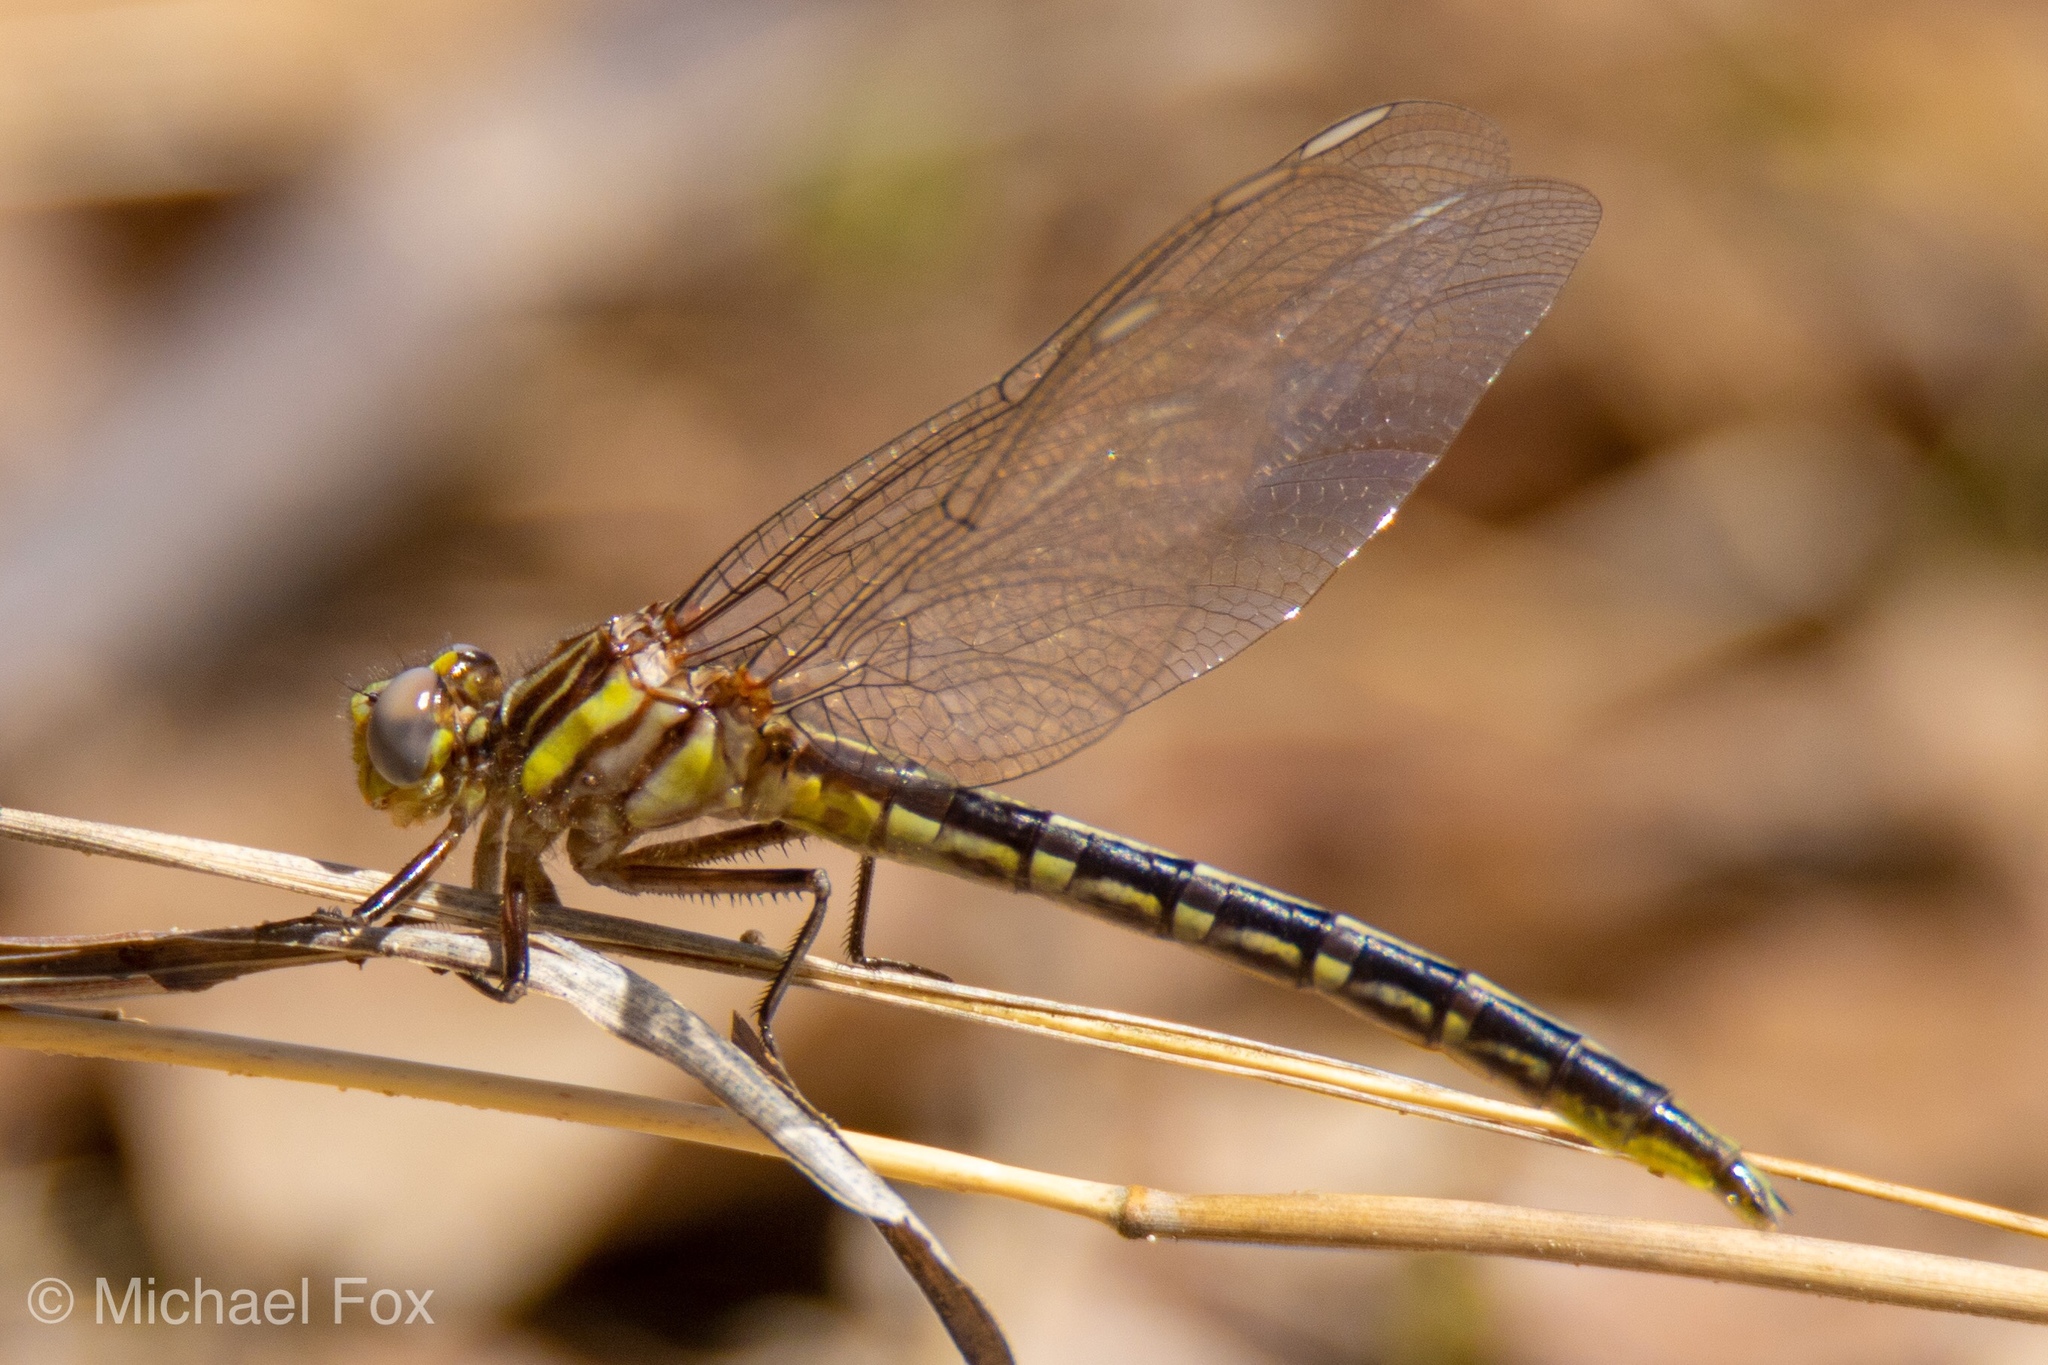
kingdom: Animalia
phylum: Arthropoda
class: Insecta
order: Odonata
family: Gomphidae
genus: Phanogomphus
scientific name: Phanogomphus oklahomensis
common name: Oklahoma clubtail
